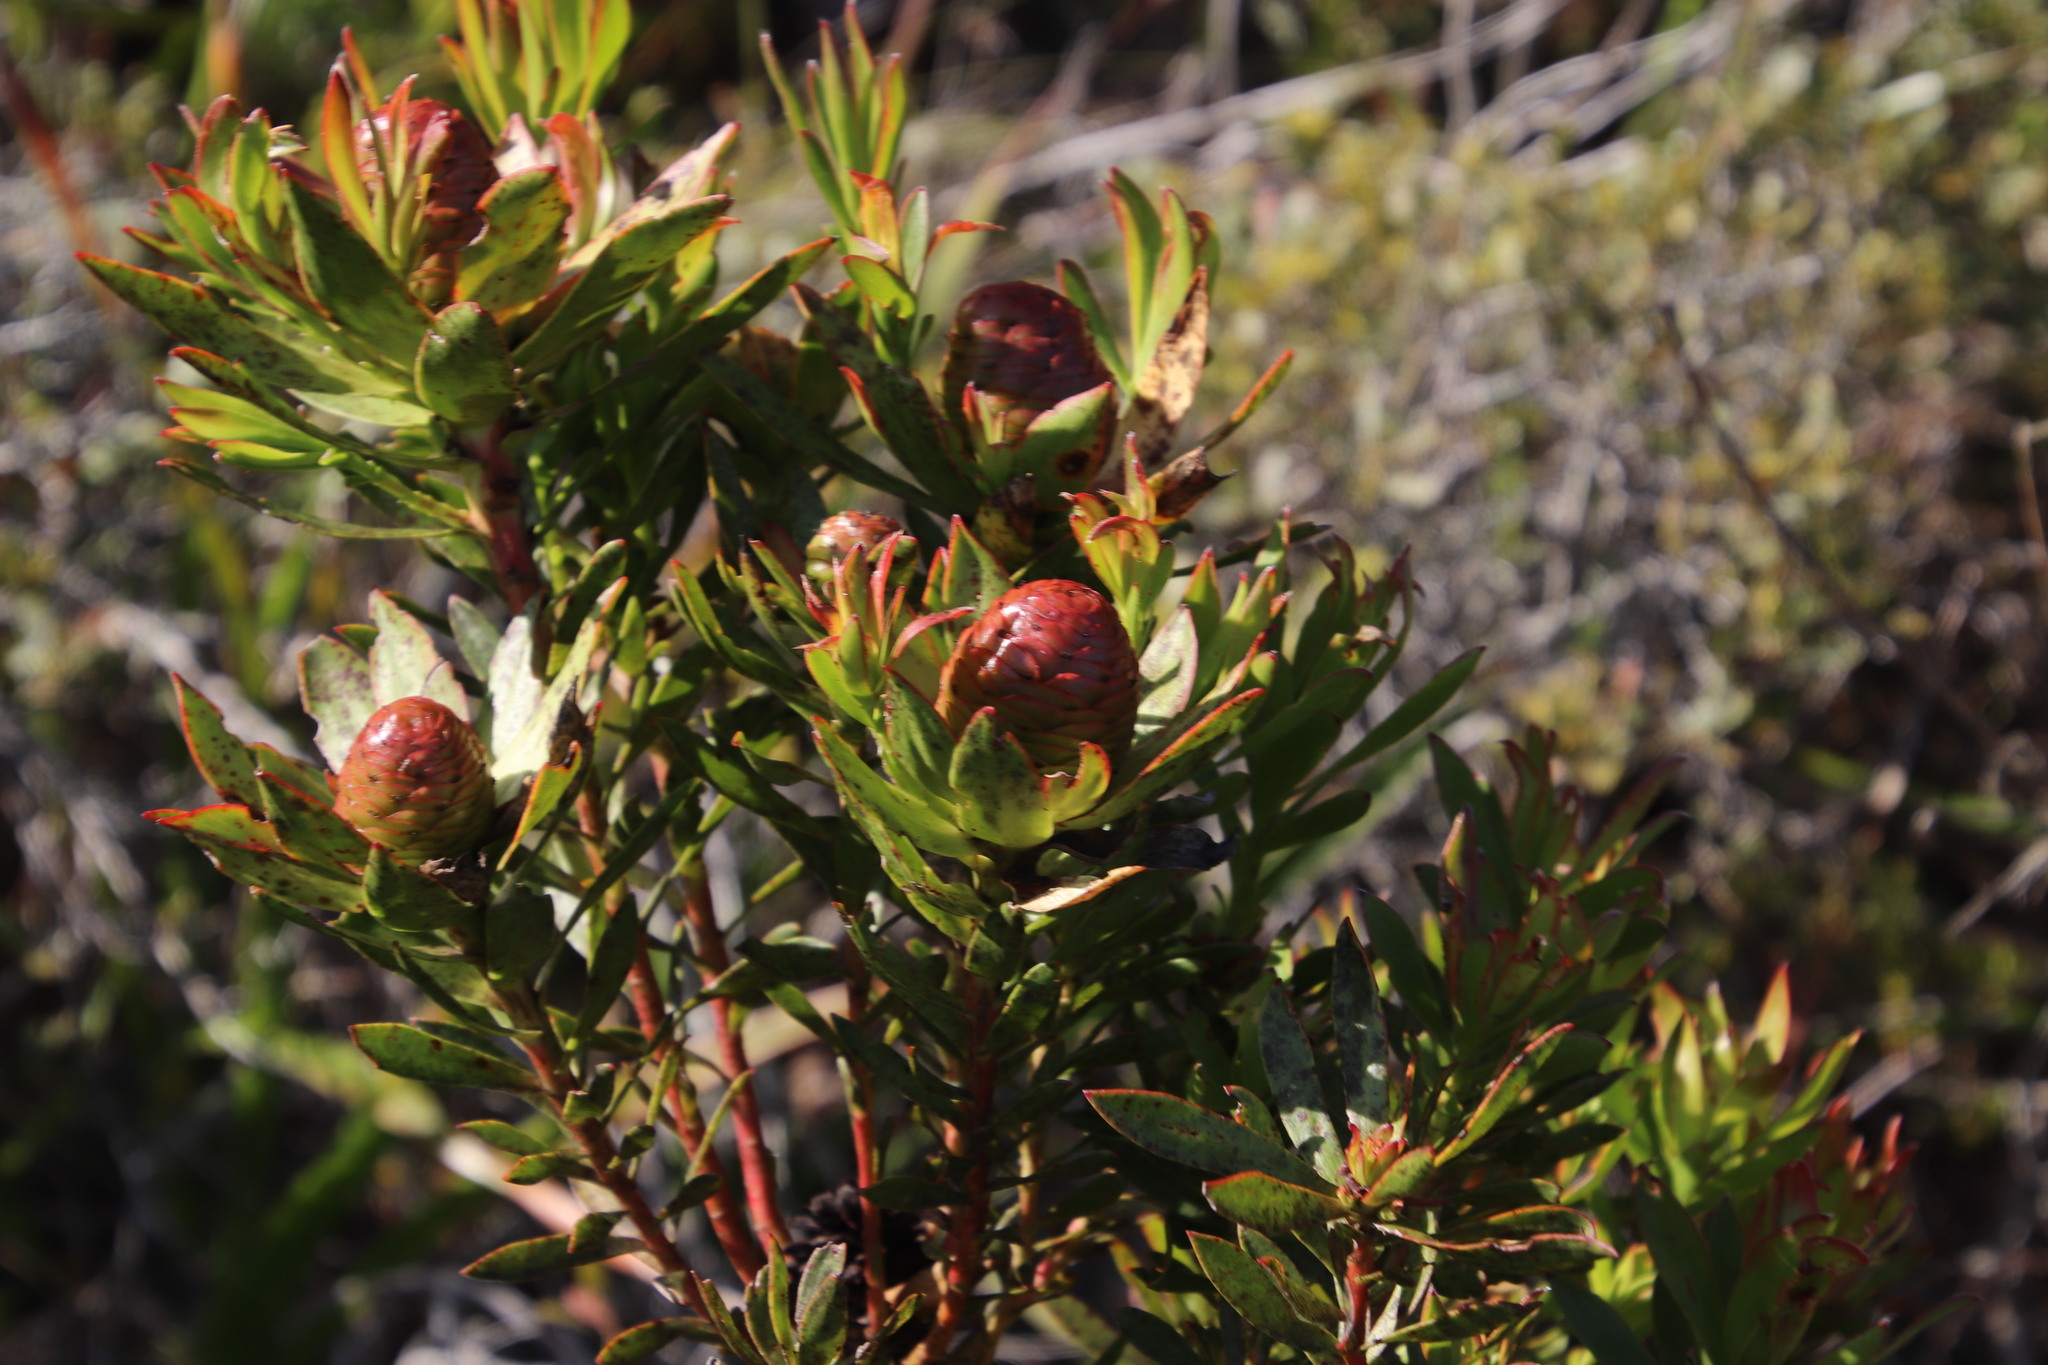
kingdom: Plantae
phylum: Tracheophyta
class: Magnoliopsida
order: Proteales
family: Proteaceae
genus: Leucadendron
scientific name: Leucadendron spissifolium
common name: Spear-leaf conebush
